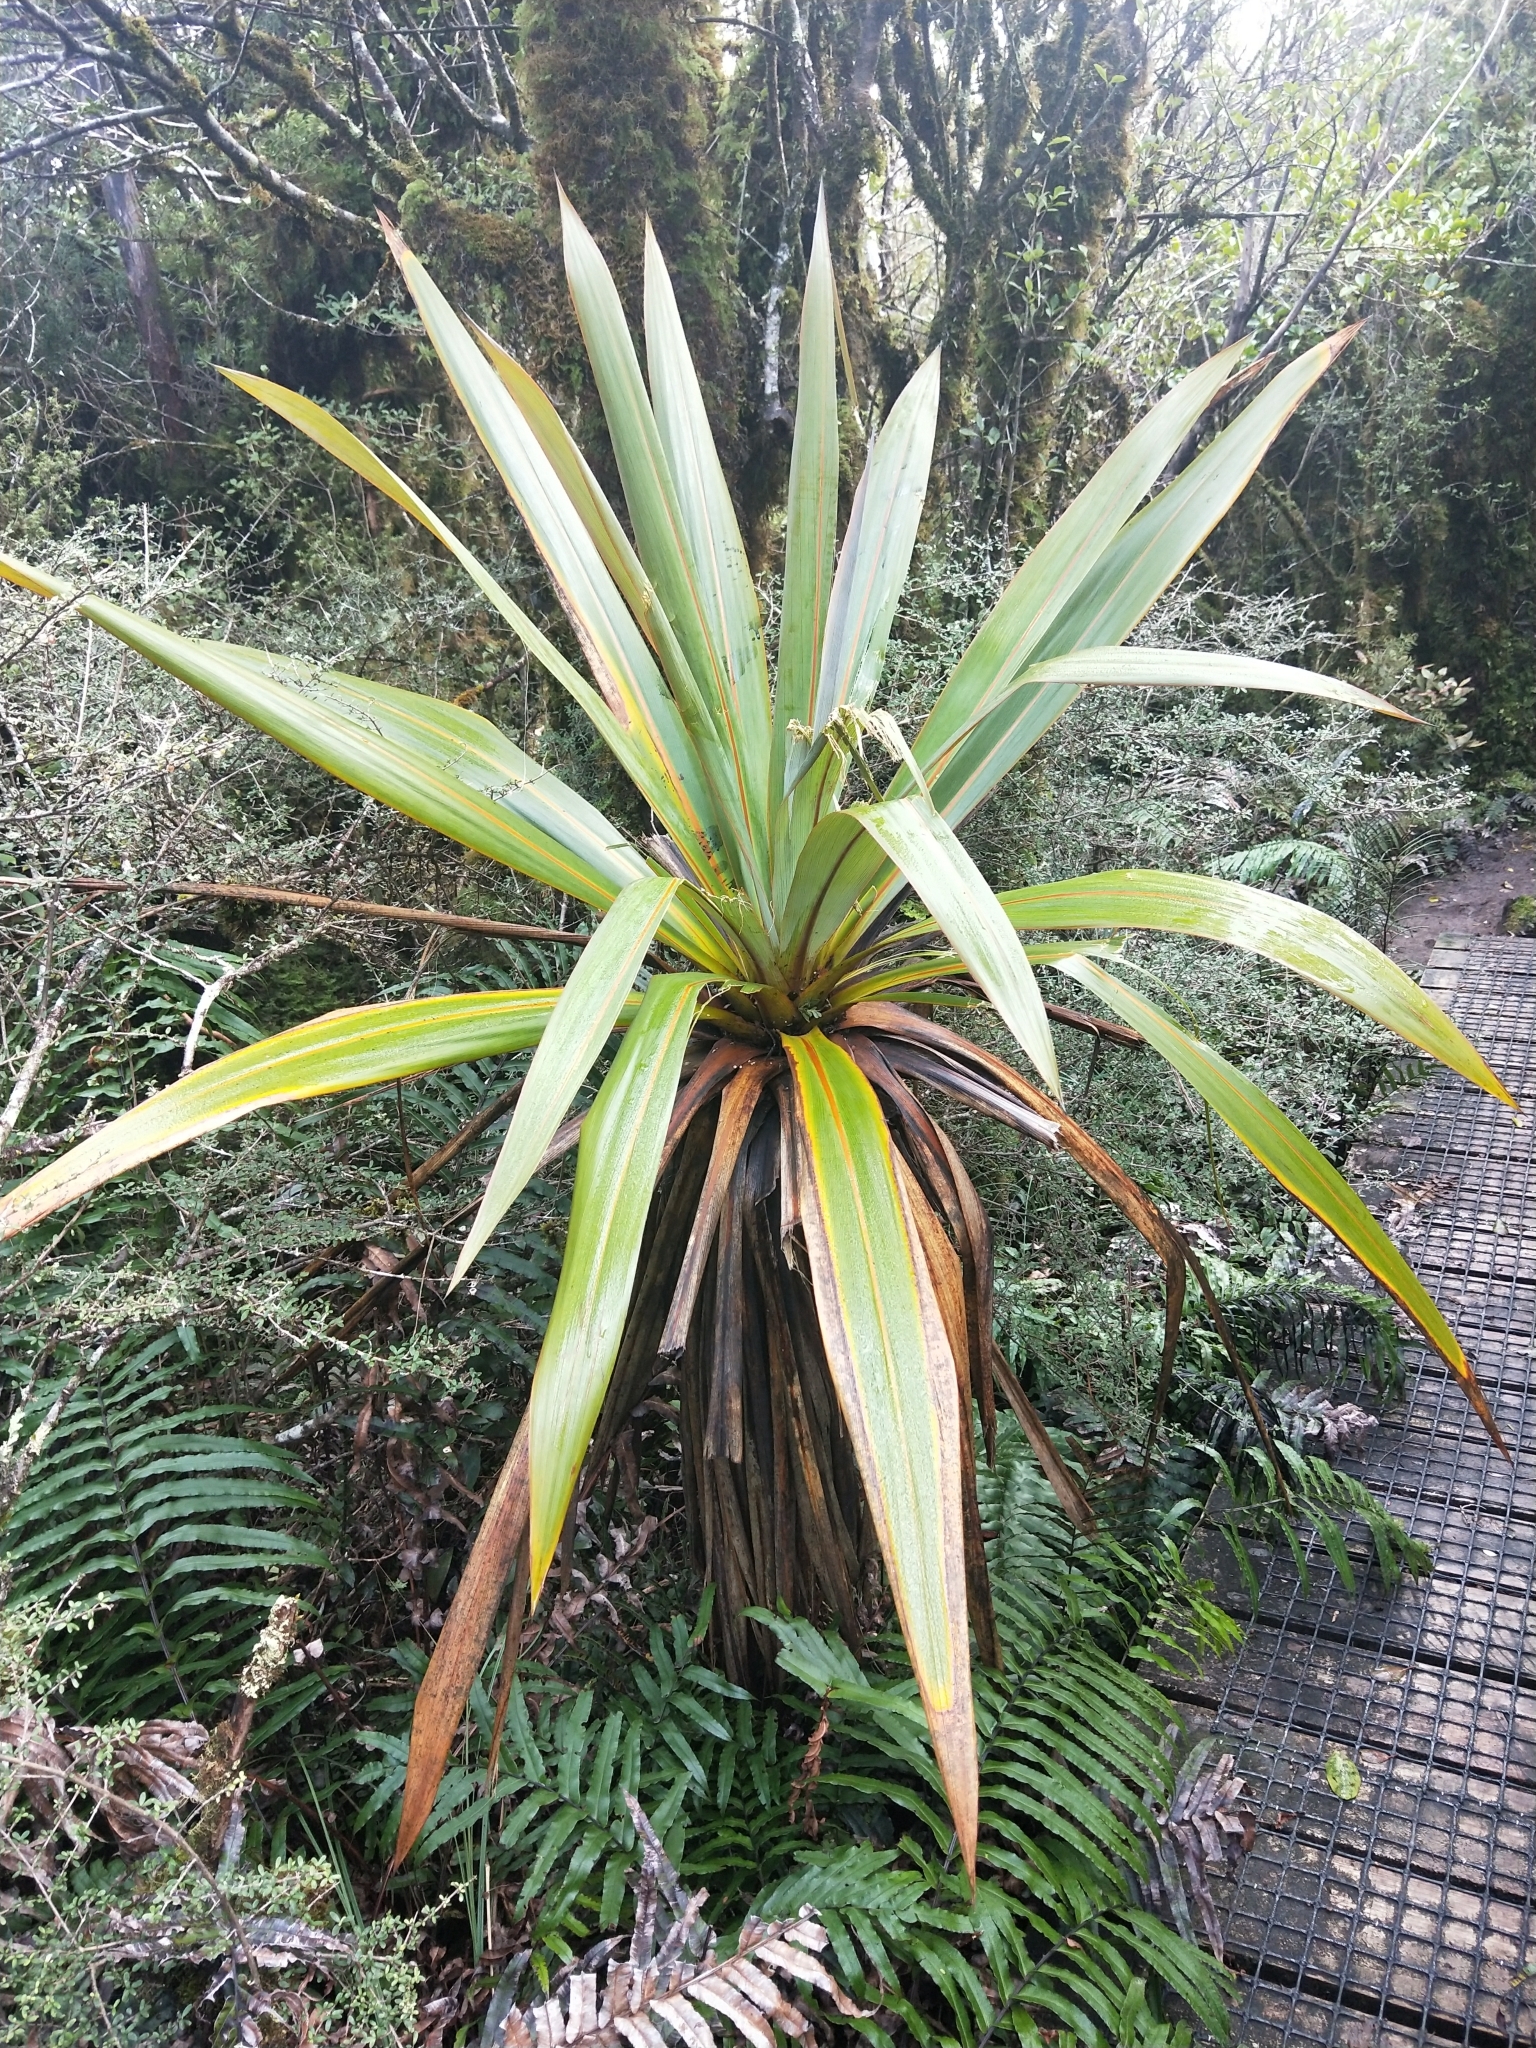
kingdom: Plantae
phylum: Tracheophyta
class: Liliopsida
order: Asparagales
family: Asparagaceae
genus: Cordyline
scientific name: Cordyline indivisa
